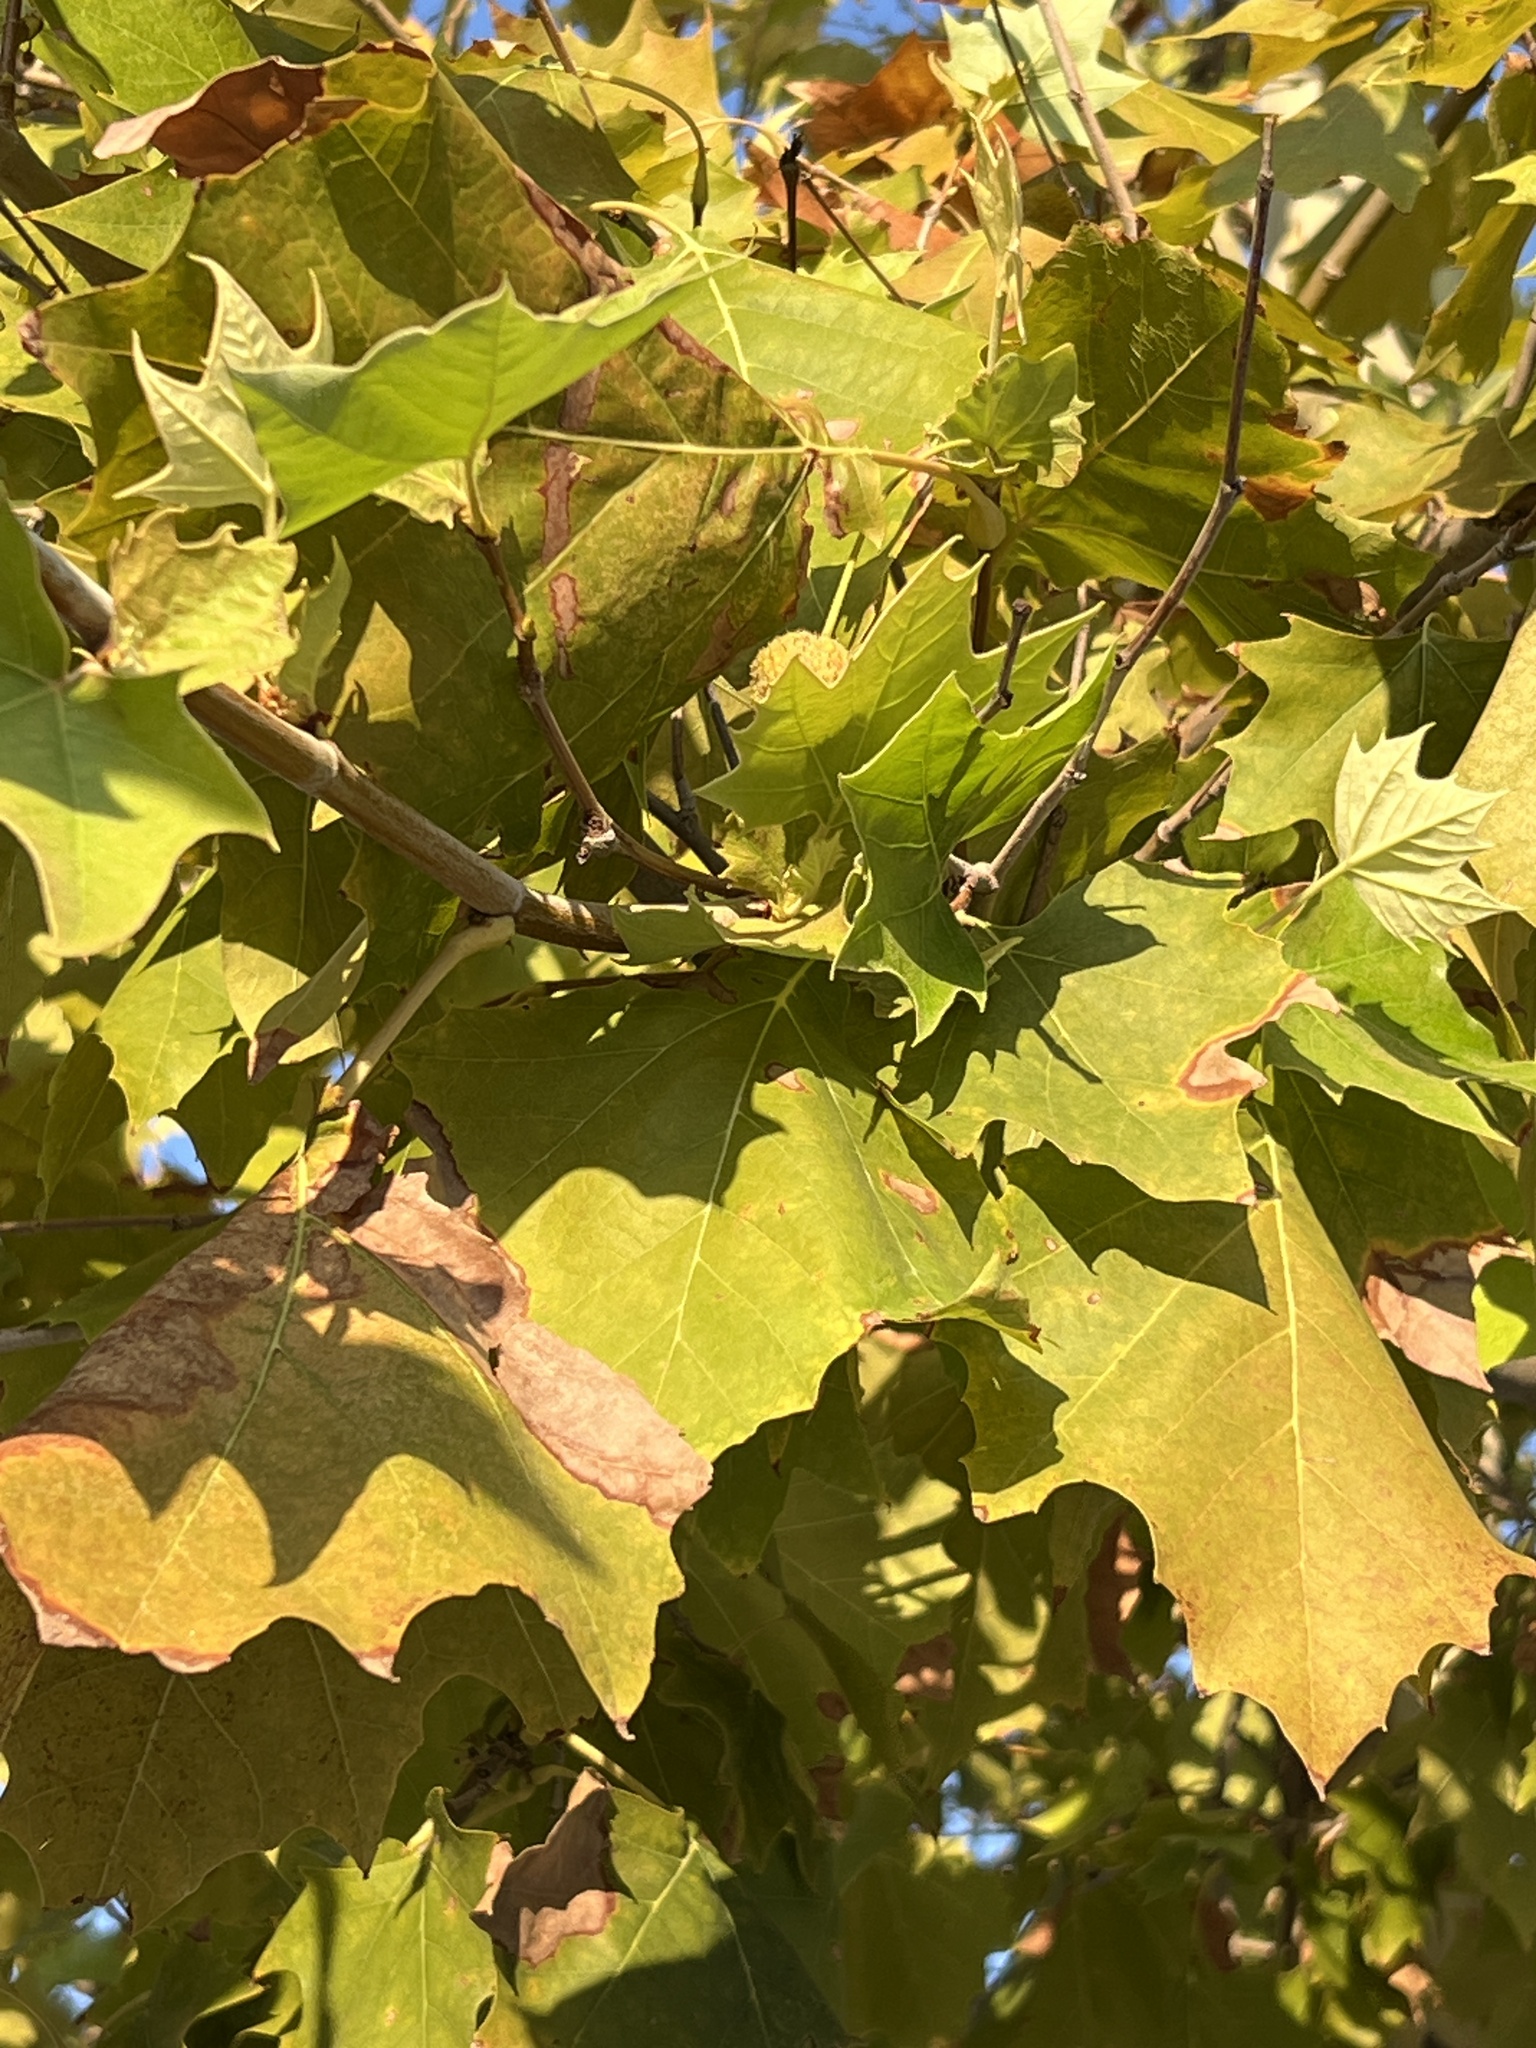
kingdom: Plantae
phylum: Tracheophyta
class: Magnoliopsida
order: Proteales
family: Platanaceae
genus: Platanus
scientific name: Platanus occidentalis
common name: American sycamore
